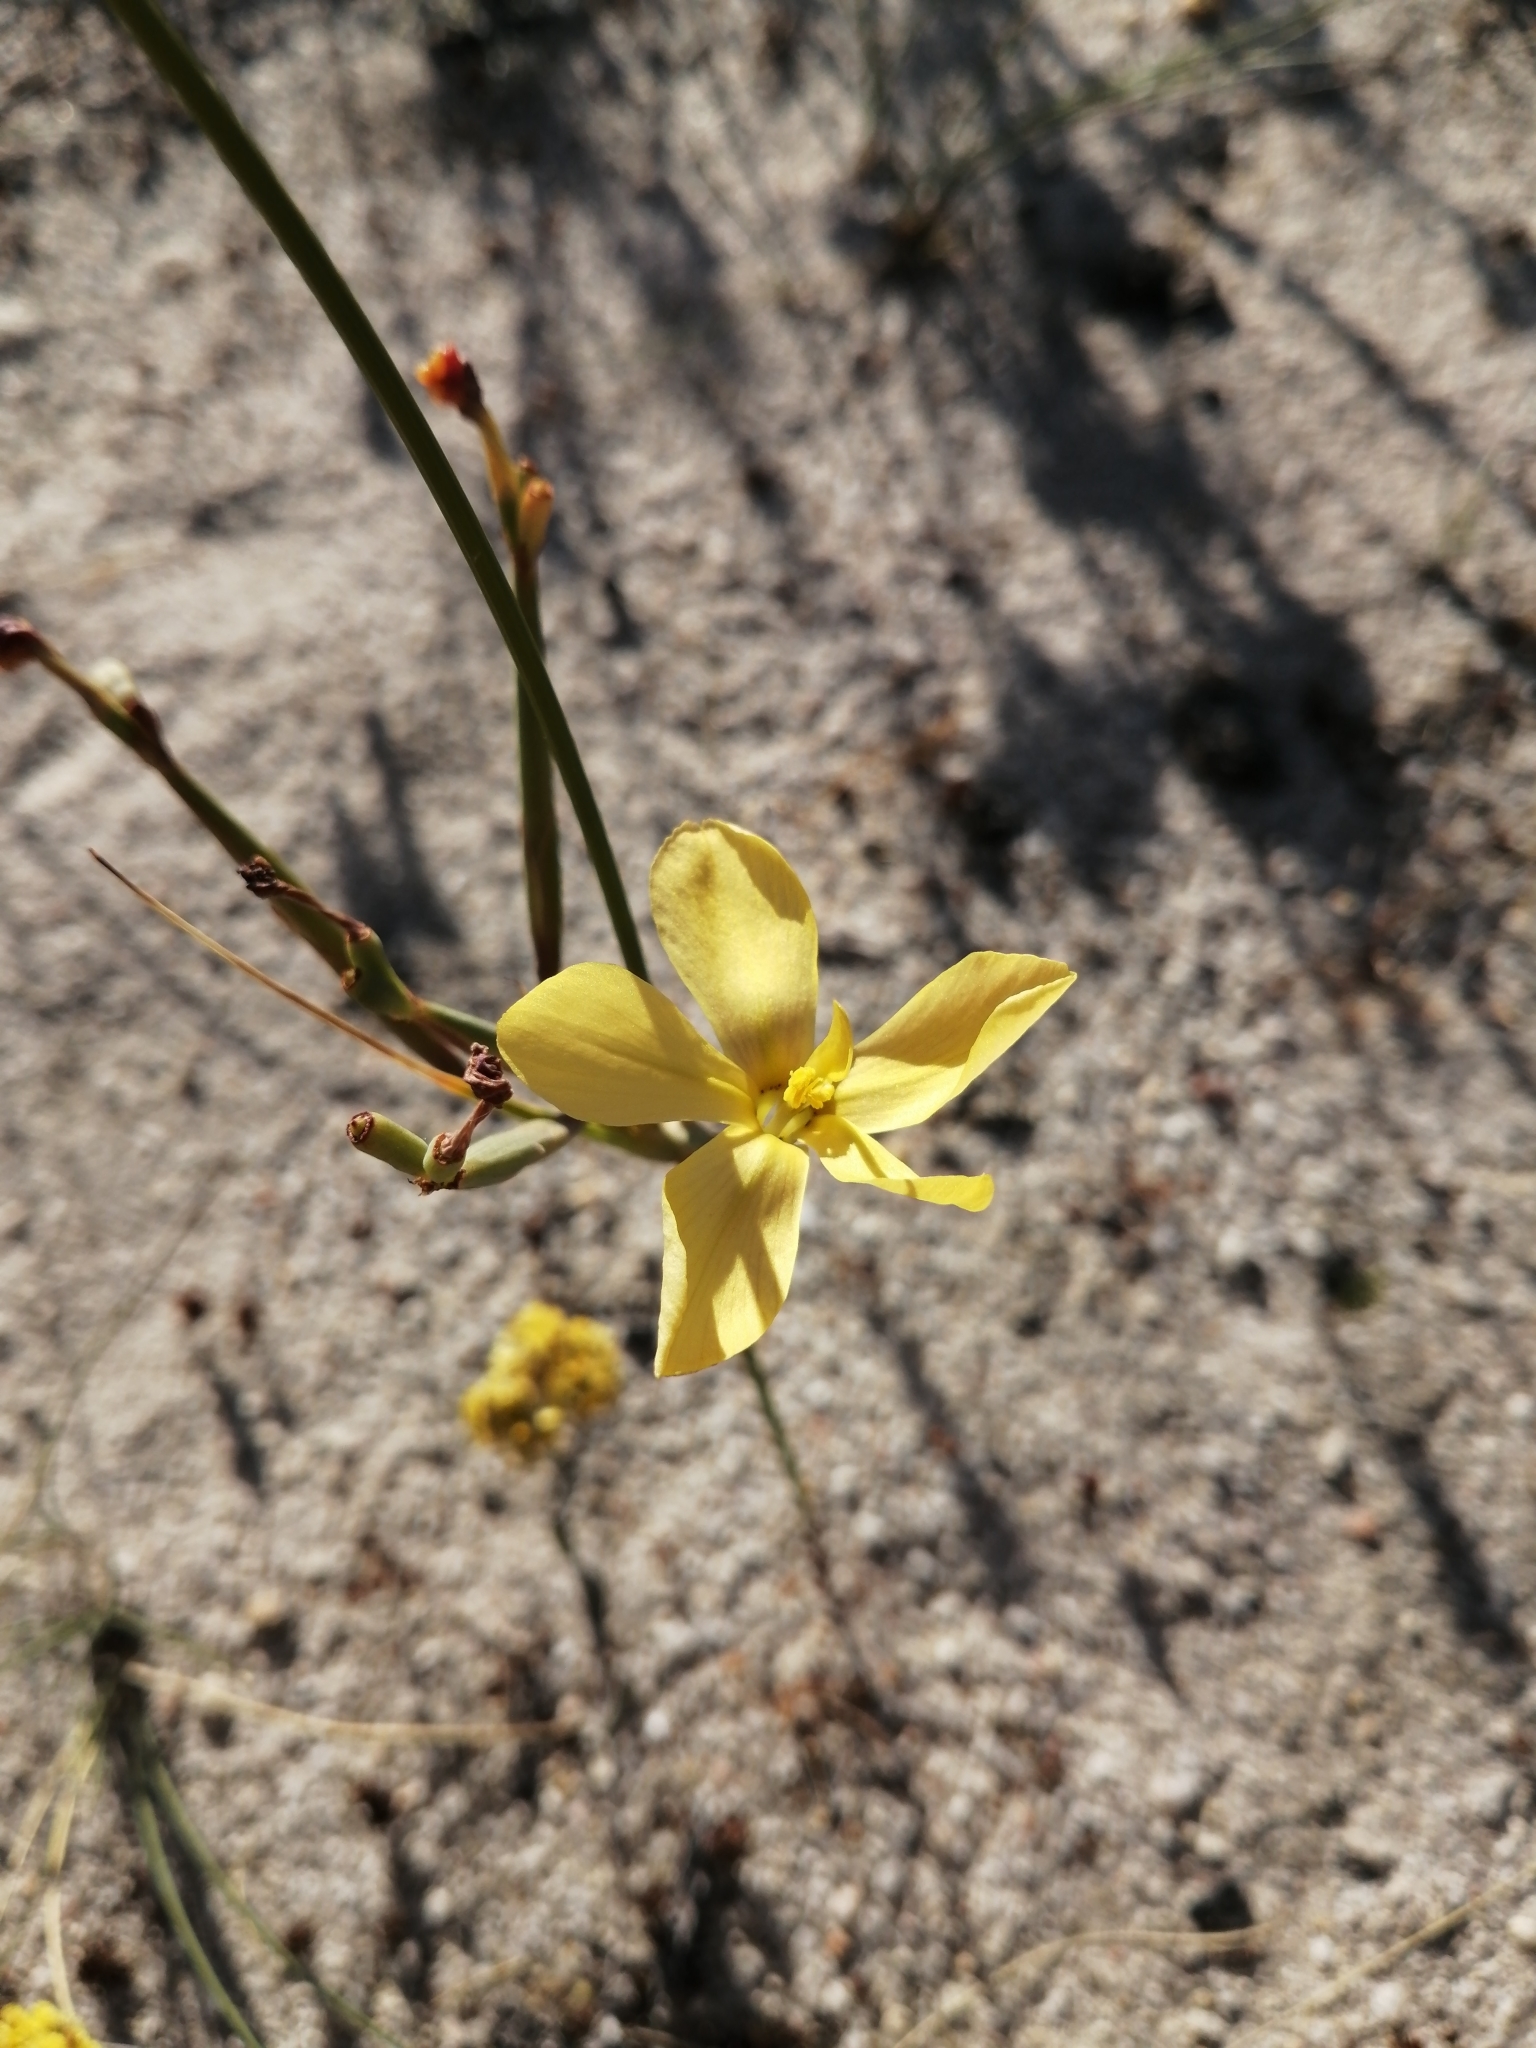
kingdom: Plantae
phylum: Tracheophyta
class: Liliopsida
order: Asparagales
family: Iridaceae
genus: Moraea
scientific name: Moraea umbellata
